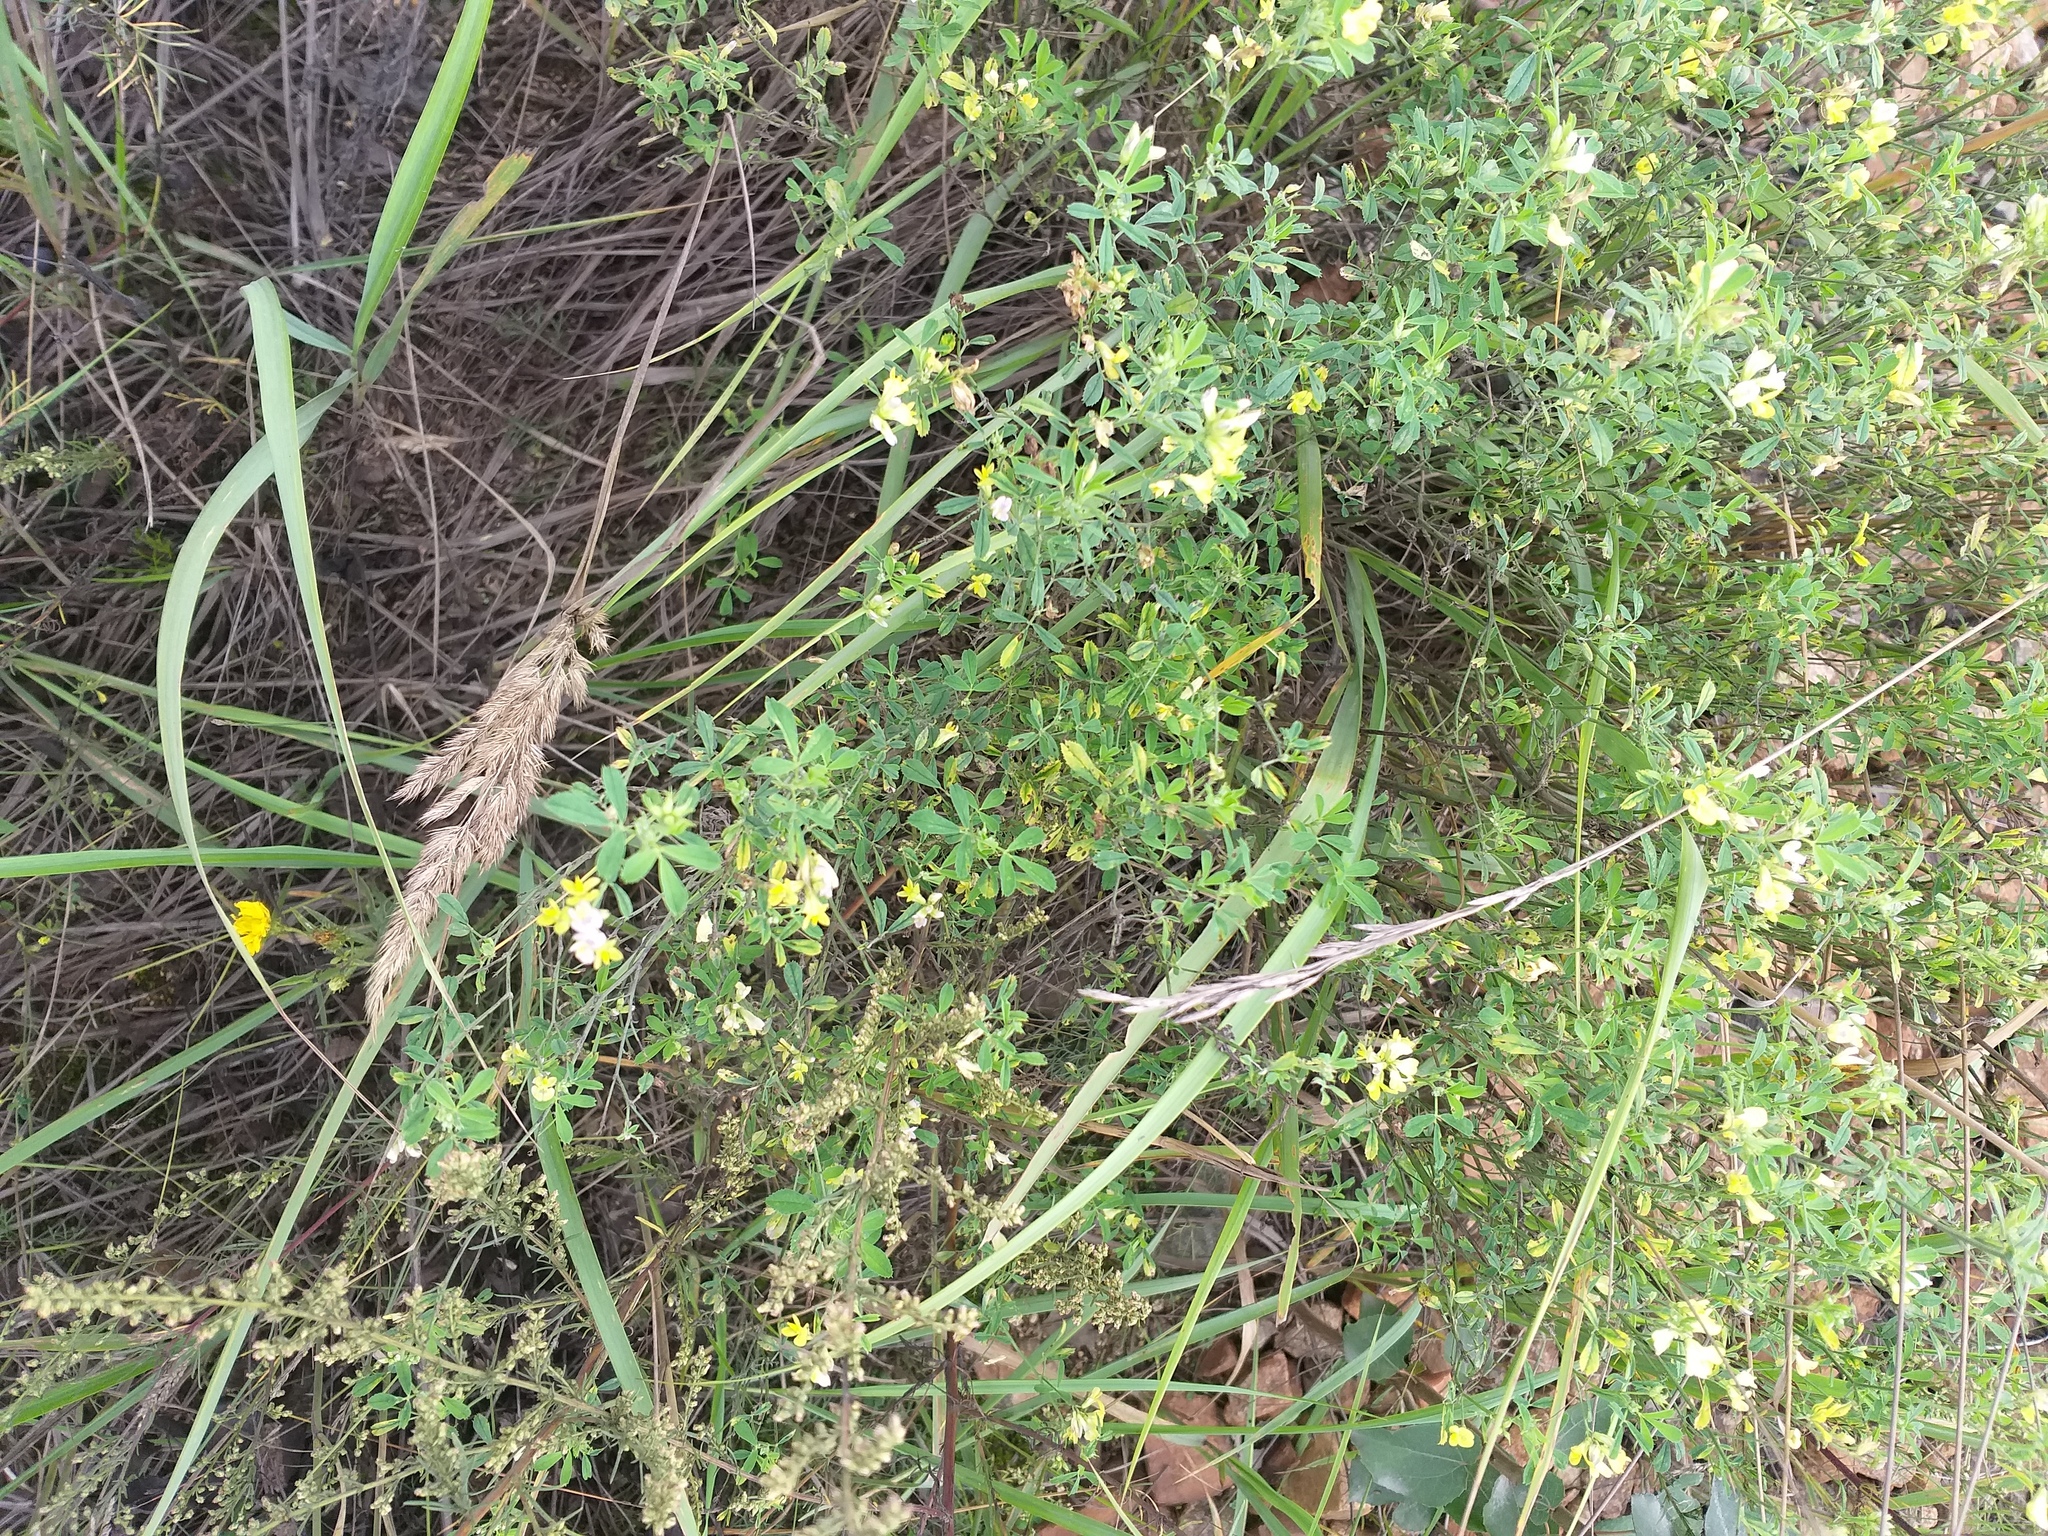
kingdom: Plantae
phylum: Tracheophyta
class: Magnoliopsida
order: Fabales
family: Fabaceae
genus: Medicago
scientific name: Medicago varia
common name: Sand lucerne
